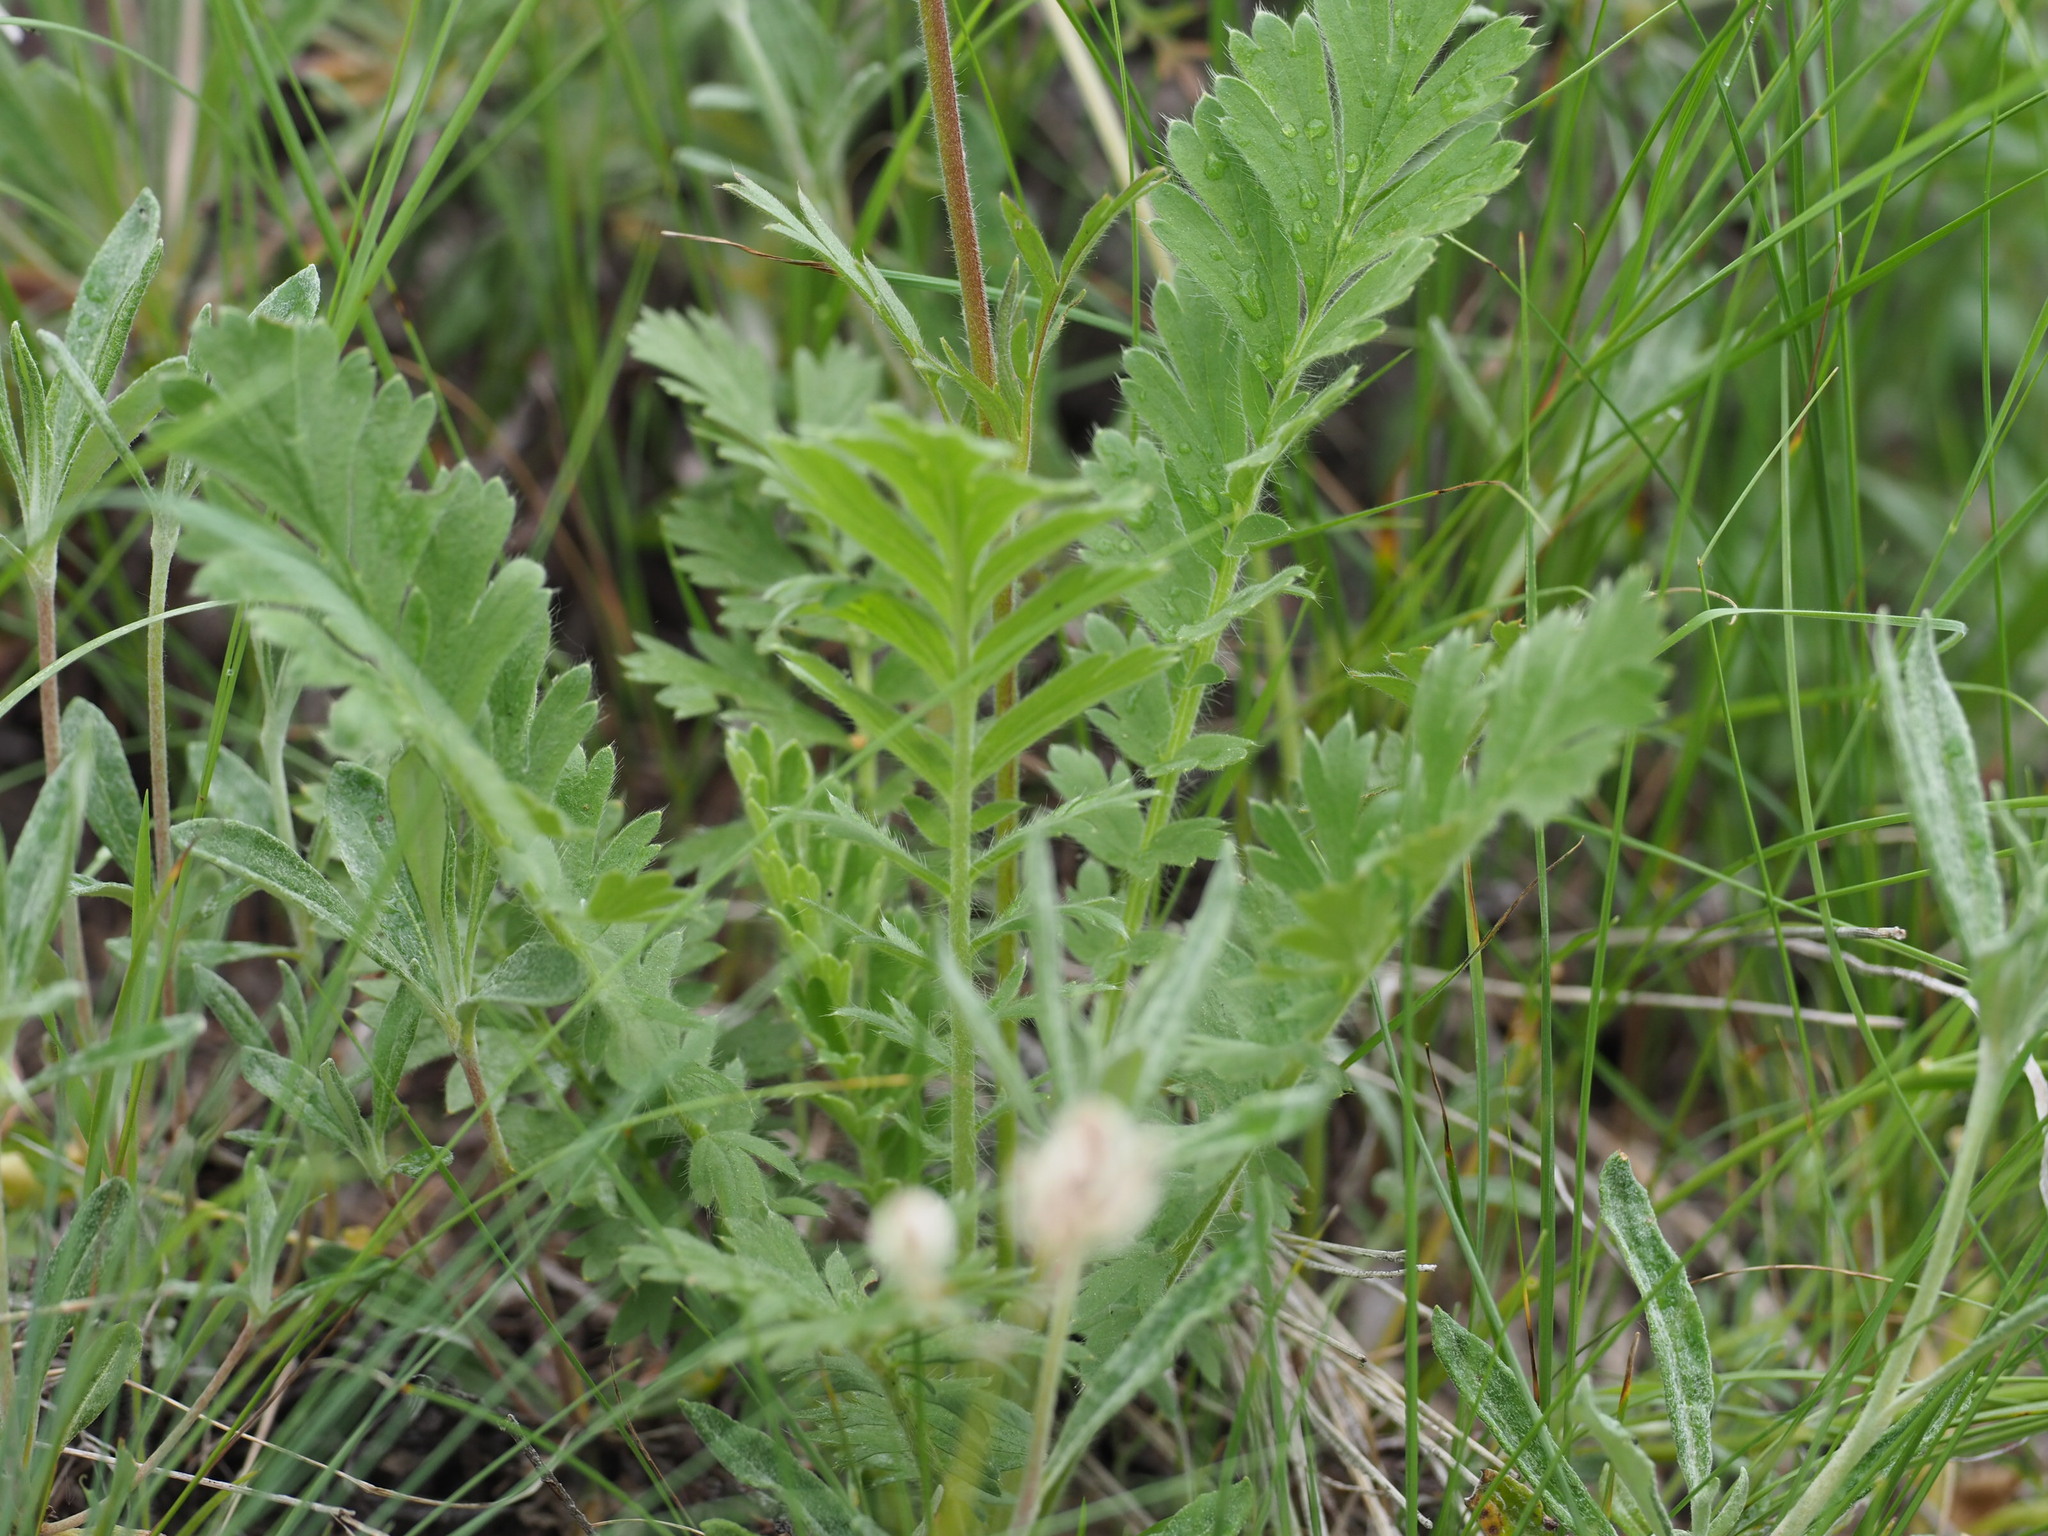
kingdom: Plantae
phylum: Tracheophyta
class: Magnoliopsida
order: Rosales
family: Rosaceae
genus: Geum
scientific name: Geum triflorum
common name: Old man's whiskers
